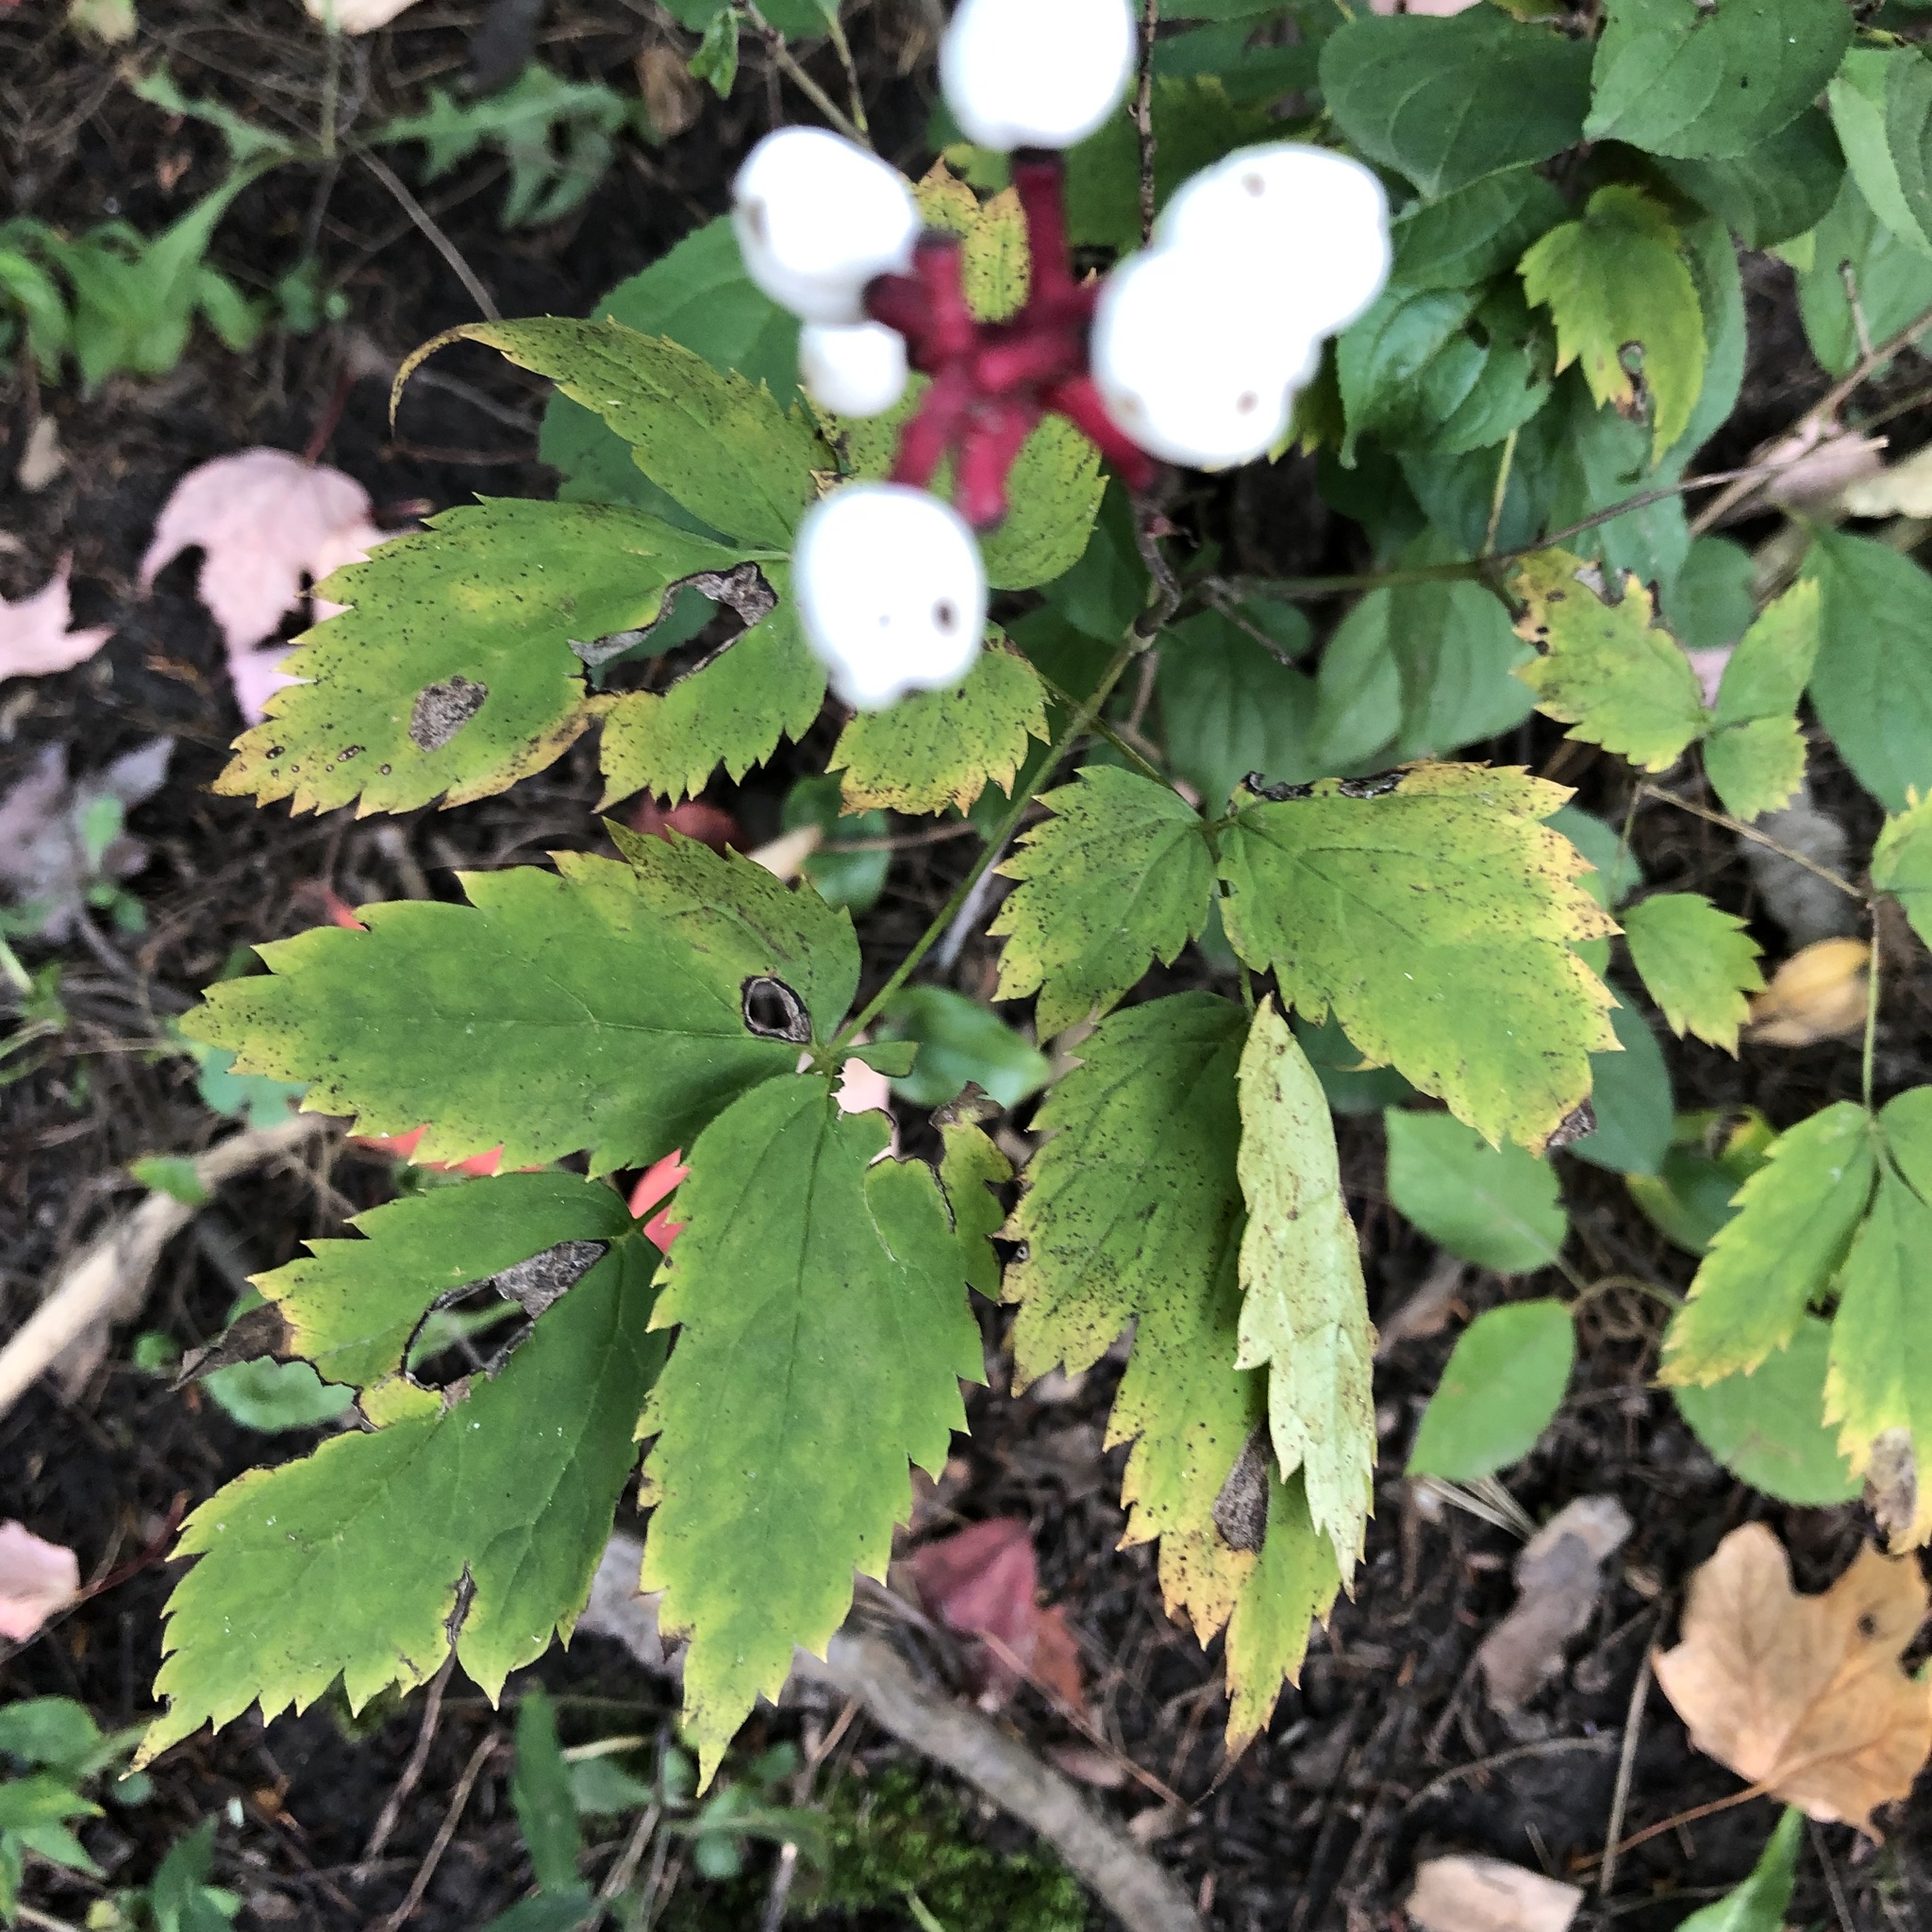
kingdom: Plantae
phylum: Tracheophyta
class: Magnoliopsida
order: Ranunculales
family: Ranunculaceae
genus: Actaea
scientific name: Actaea pachypoda
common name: Doll's-eyes
